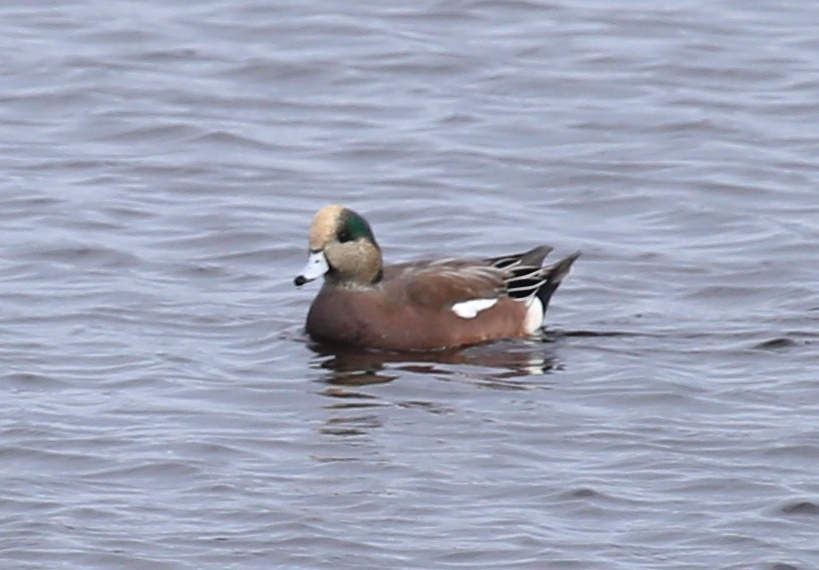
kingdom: Animalia
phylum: Chordata
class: Aves
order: Anseriformes
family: Anatidae
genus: Mareca
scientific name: Mareca americana
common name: American wigeon
